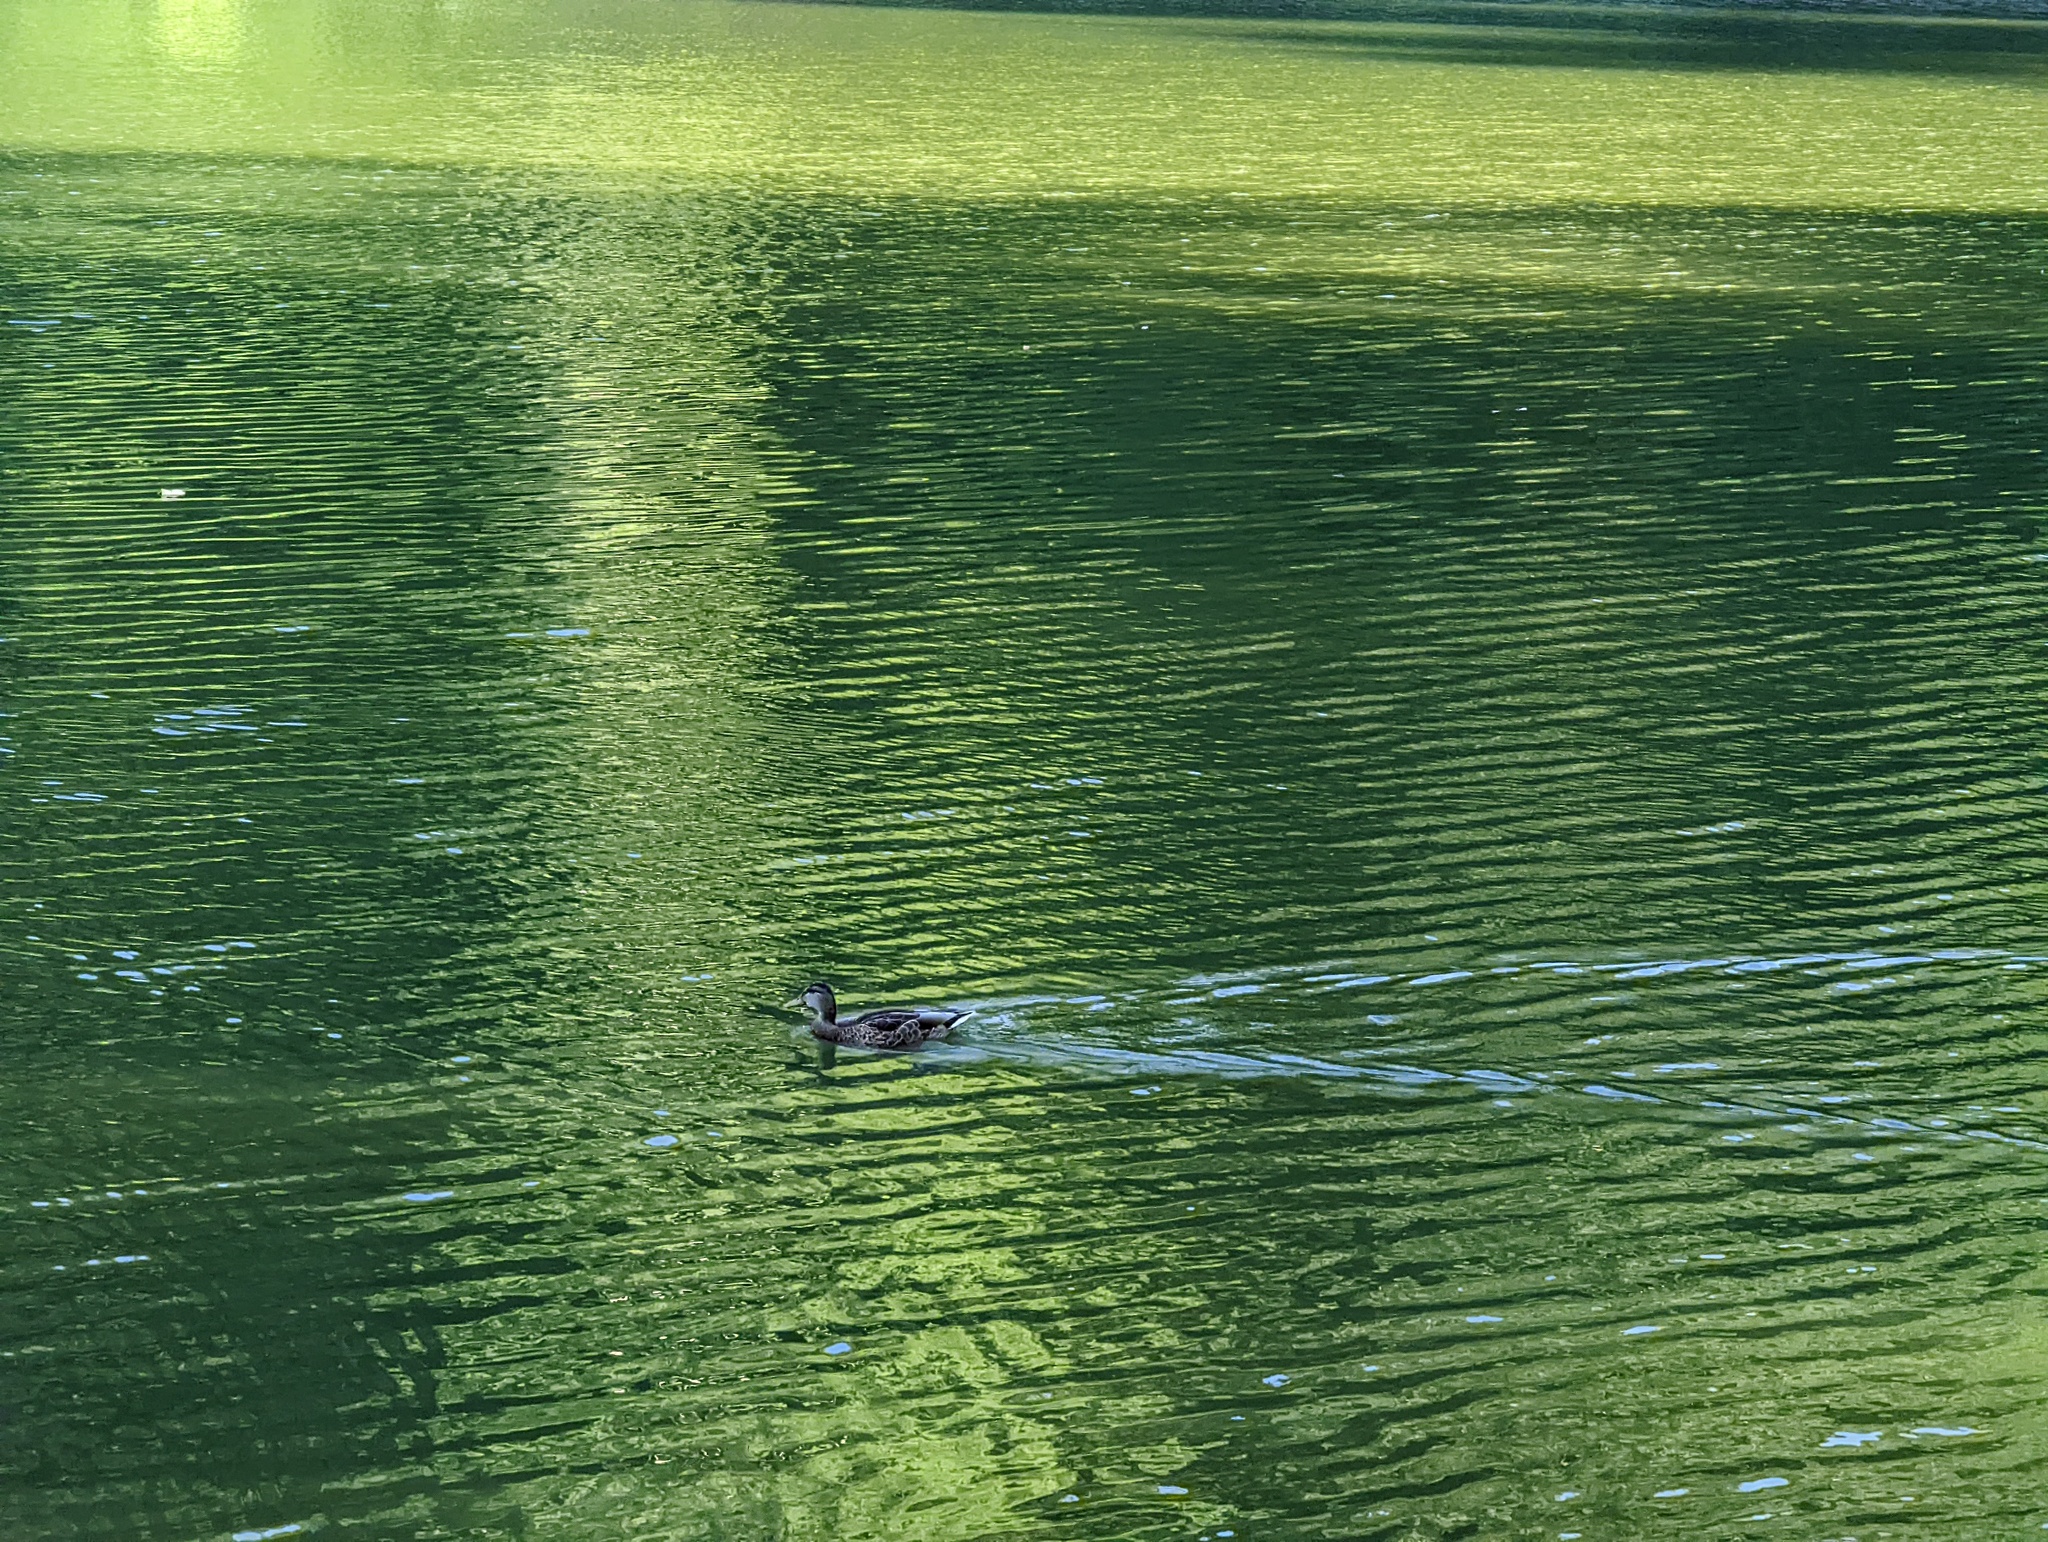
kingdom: Animalia
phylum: Chordata
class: Aves
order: Anseriformes
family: Anatidae
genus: Anas
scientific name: Anas platyrhynchos
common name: Mallard
